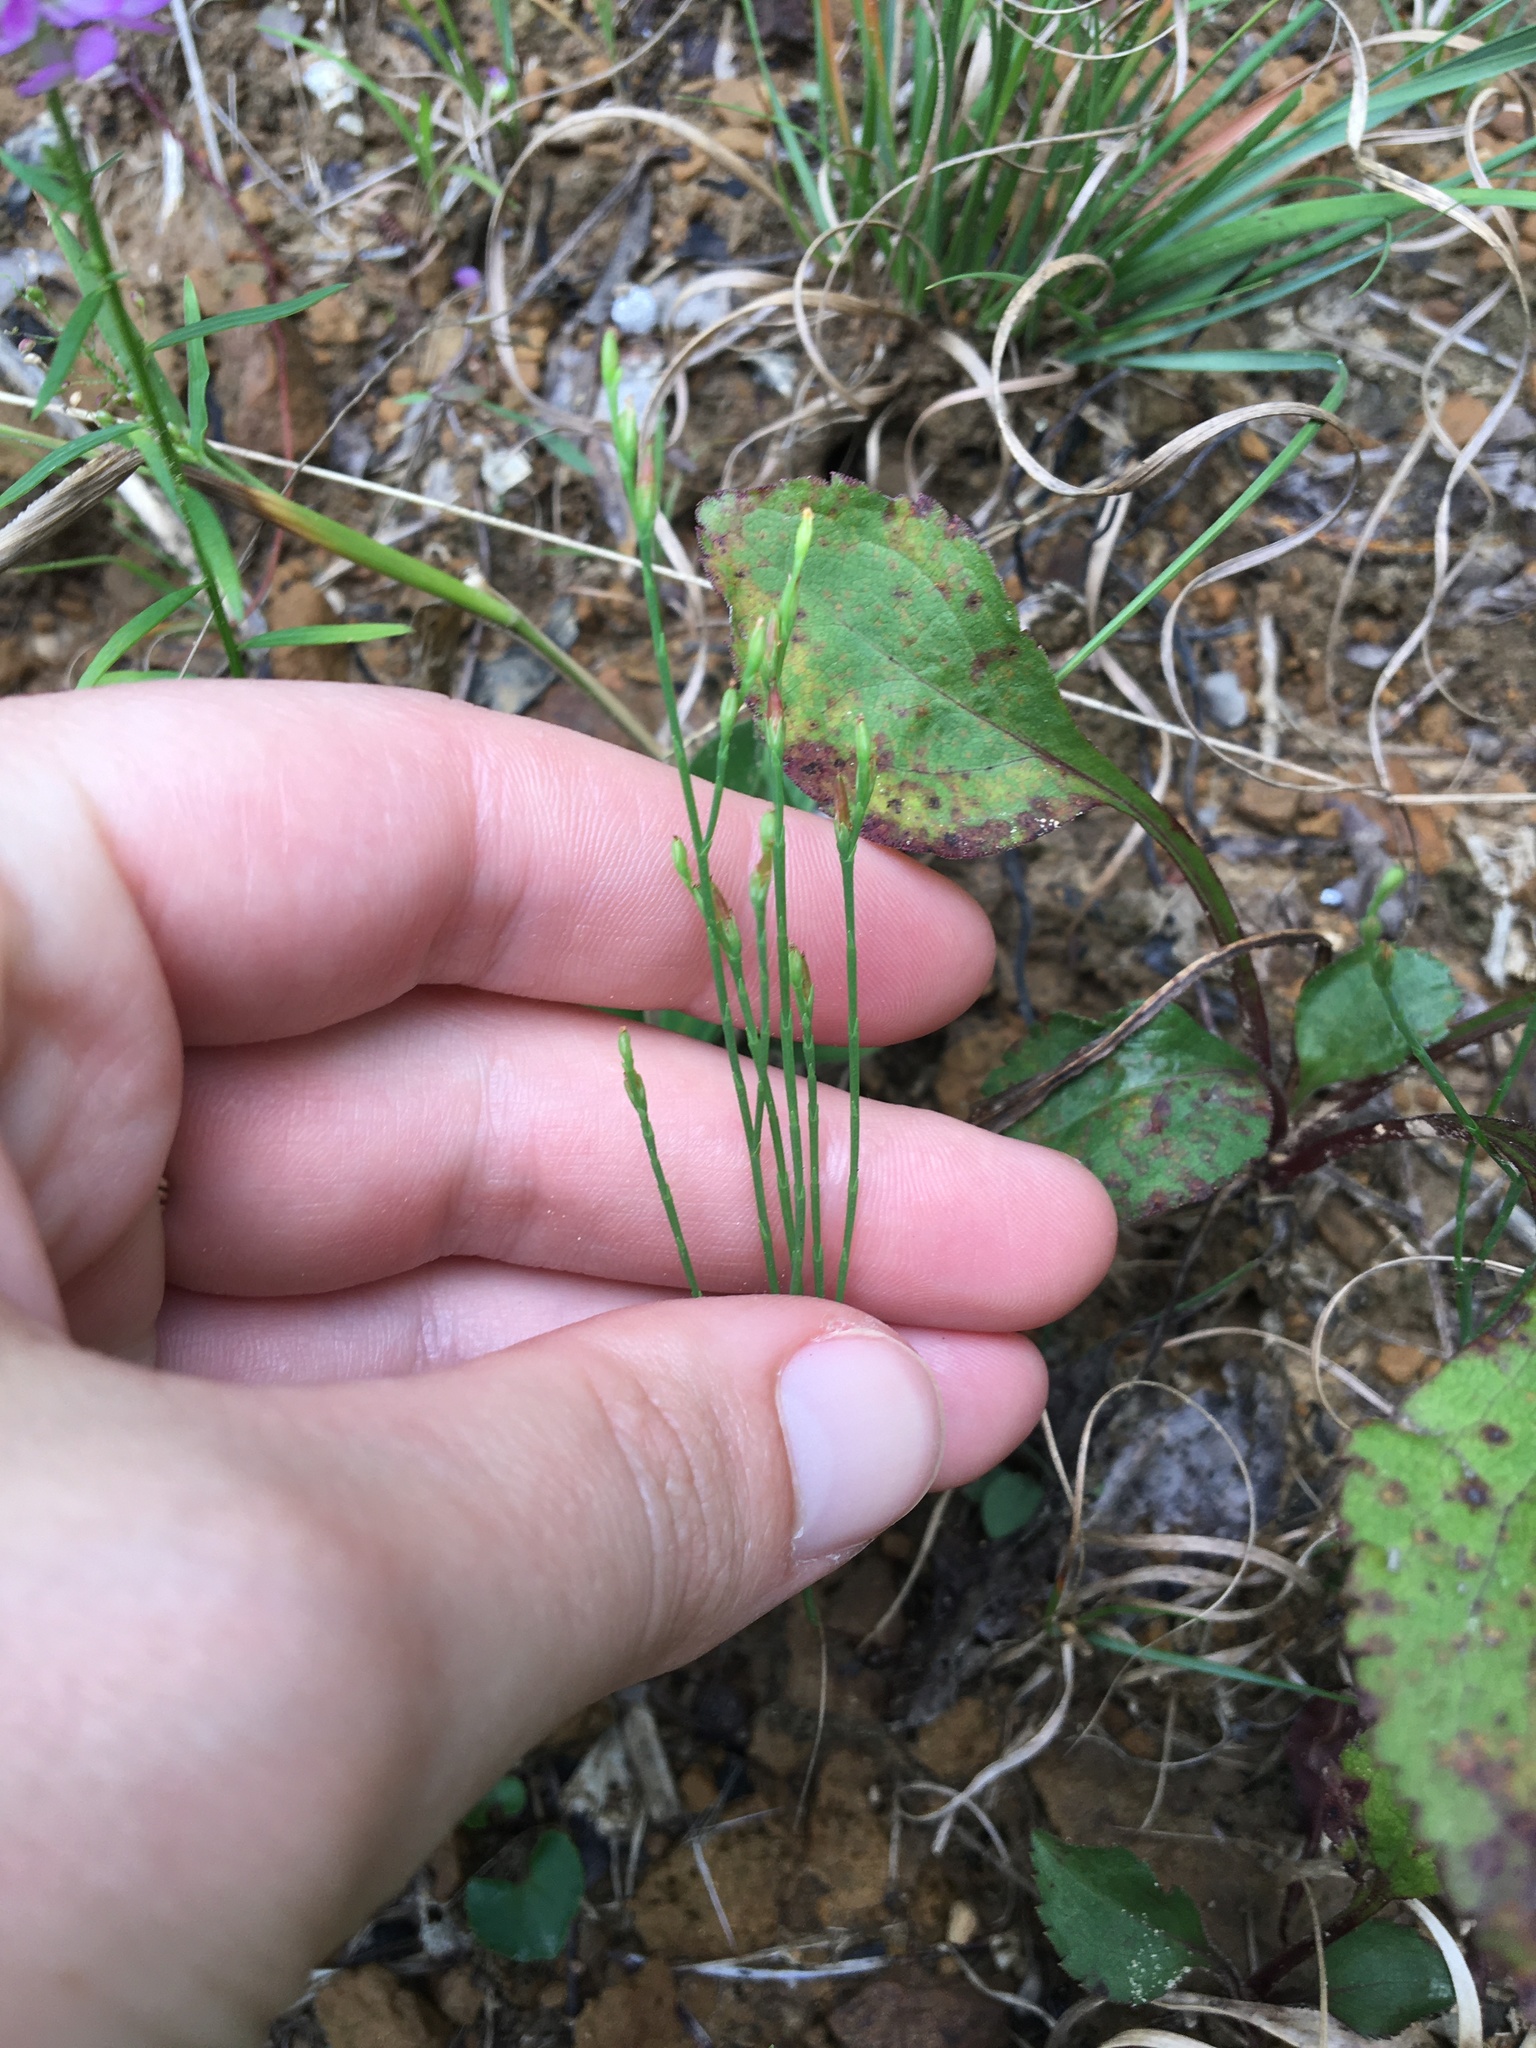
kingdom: Plantae
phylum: Tracheophyta
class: Magnoliopsida
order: Malpighiales
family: Hypericaceae
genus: Hypericum
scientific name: Hypericum gentianoides
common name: Gentian-leaved st. john's-wort
